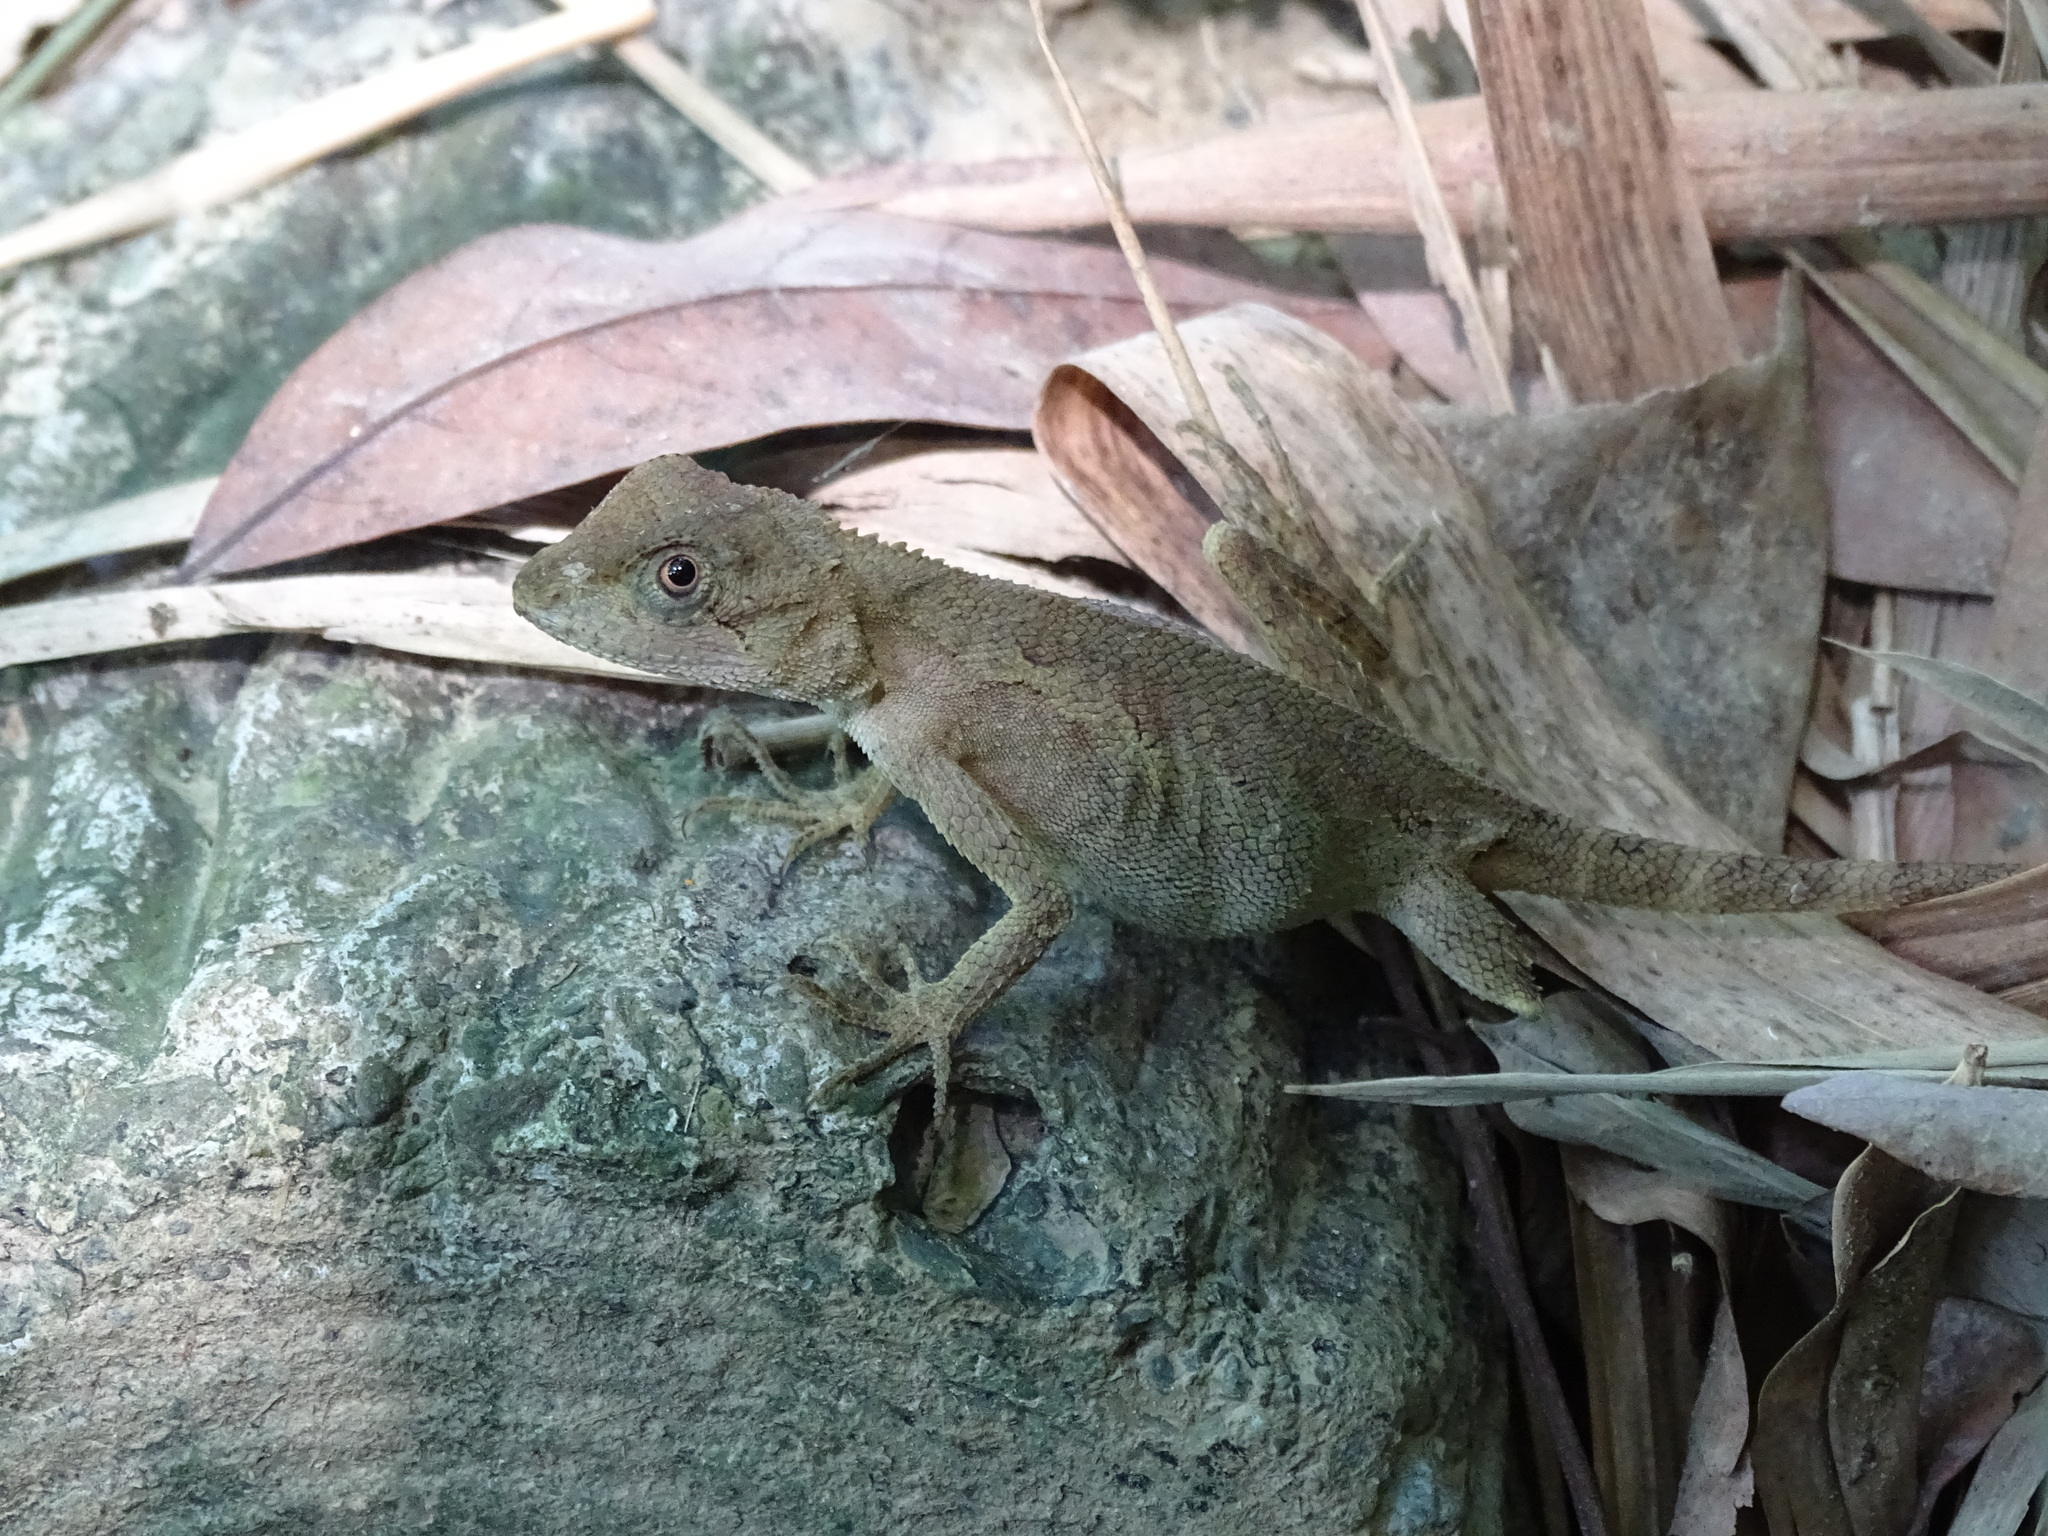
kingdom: Animalia
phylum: Chordata
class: Squamata
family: Agamidae
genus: Diploderma
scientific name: Diploderma swinhonis
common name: Taiwan japalure
